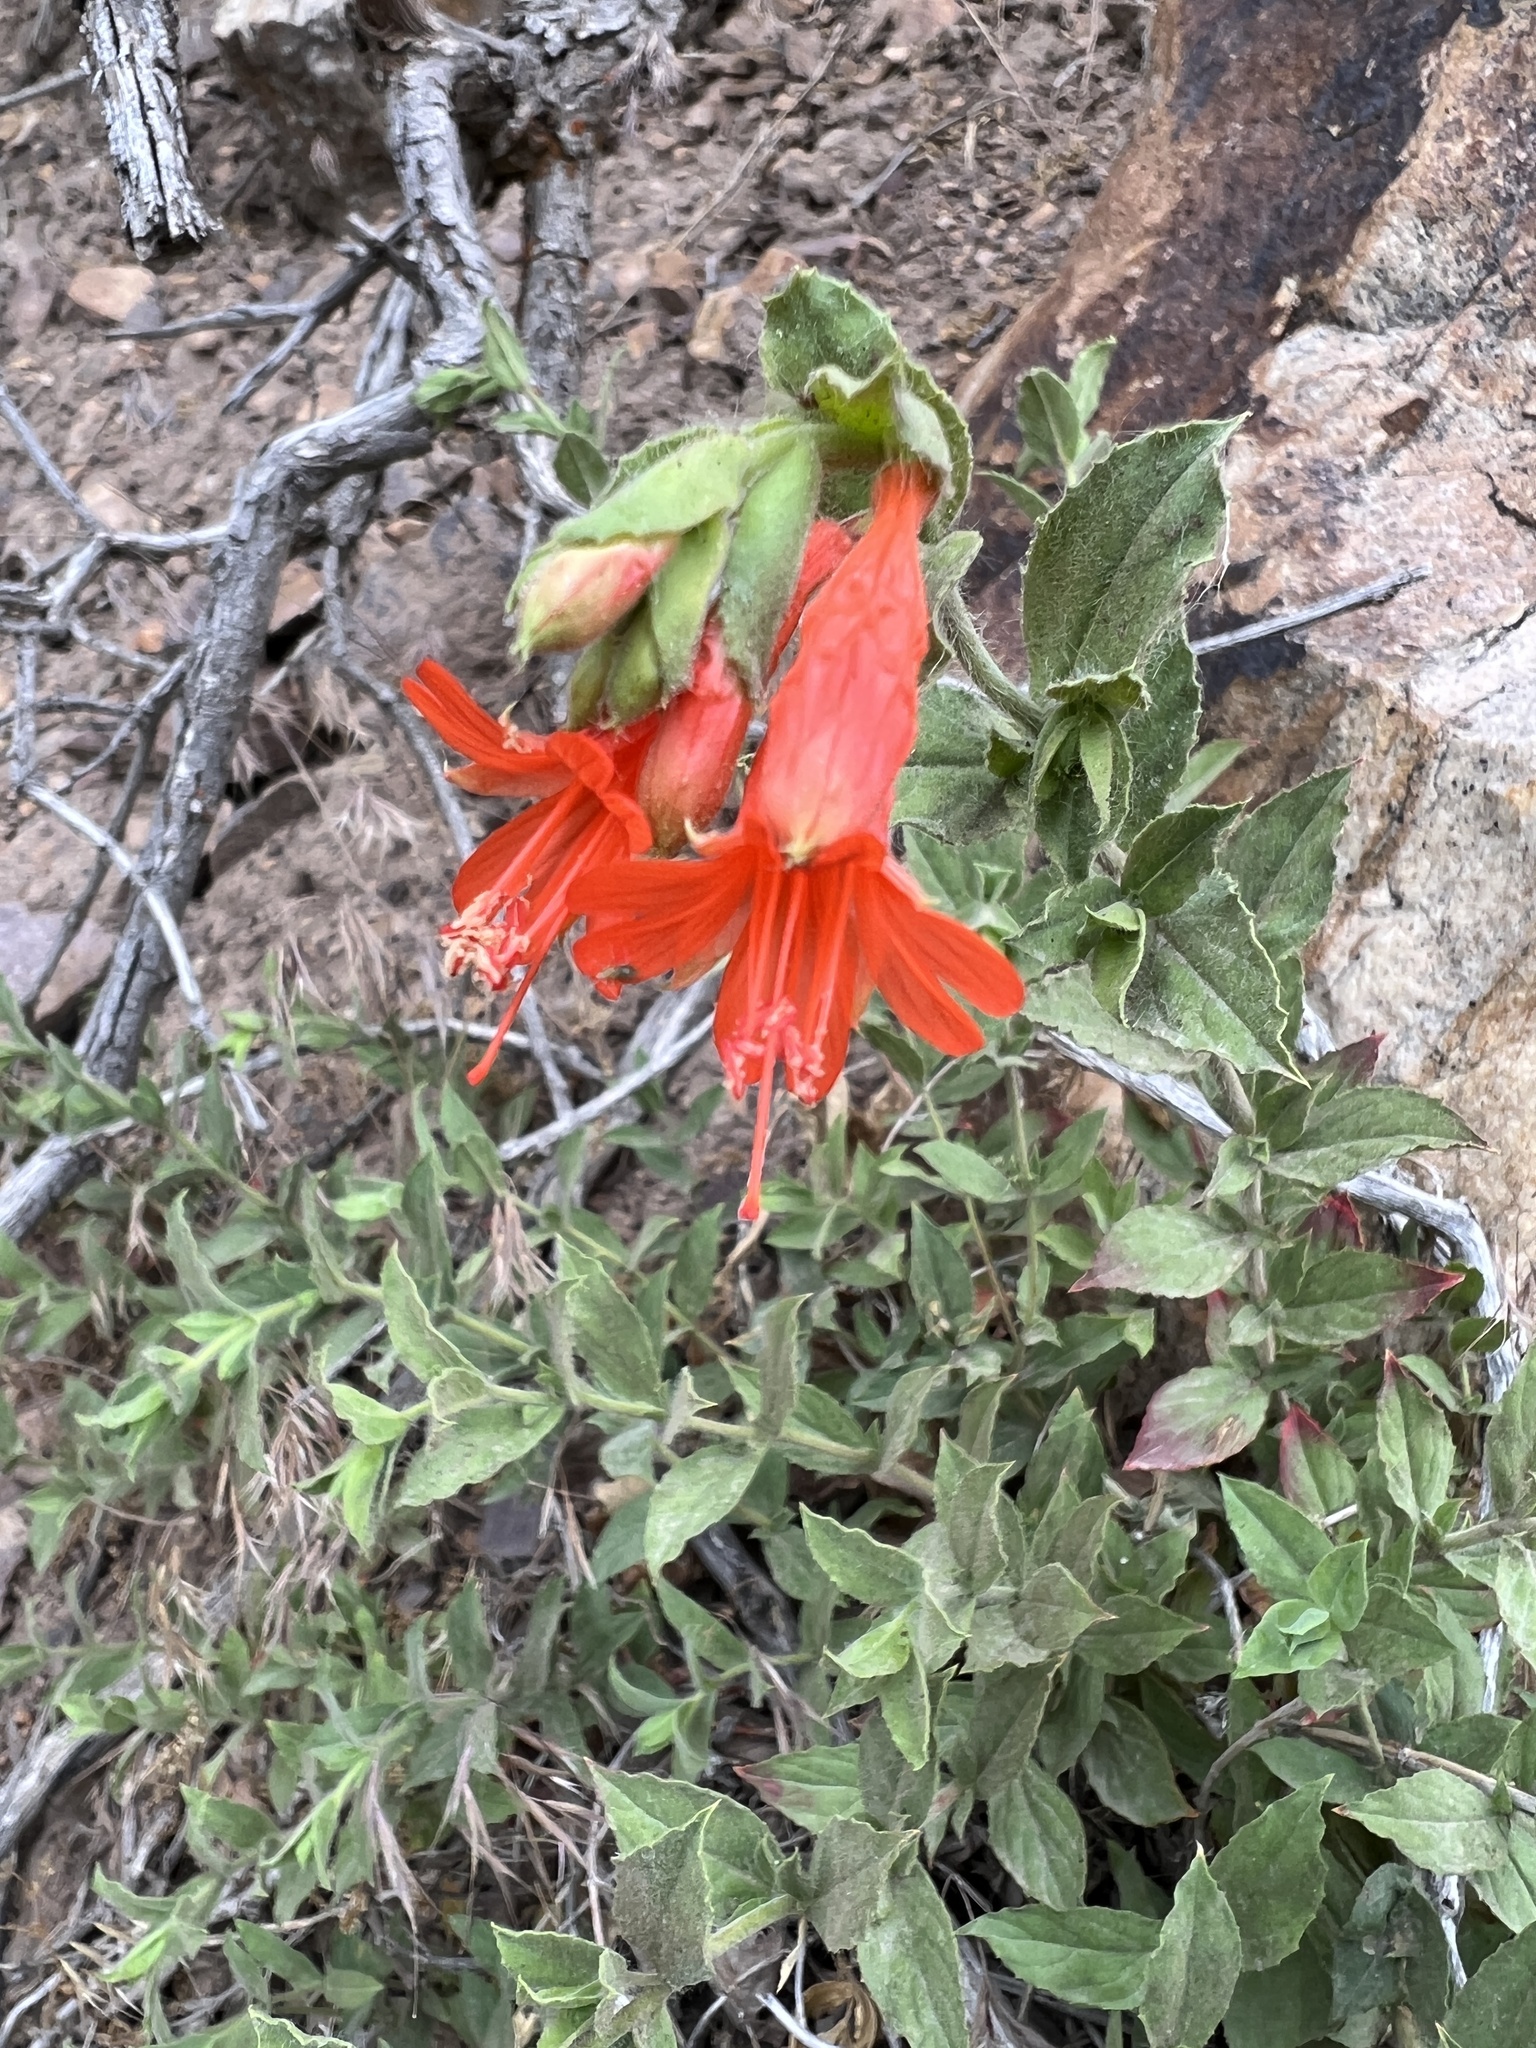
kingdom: Plantae
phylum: Tracheophyta
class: Magnoliopsida
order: Myrtales
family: Onagraceae
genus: Epilobium
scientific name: Epilobium canum
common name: California-fuchsia
